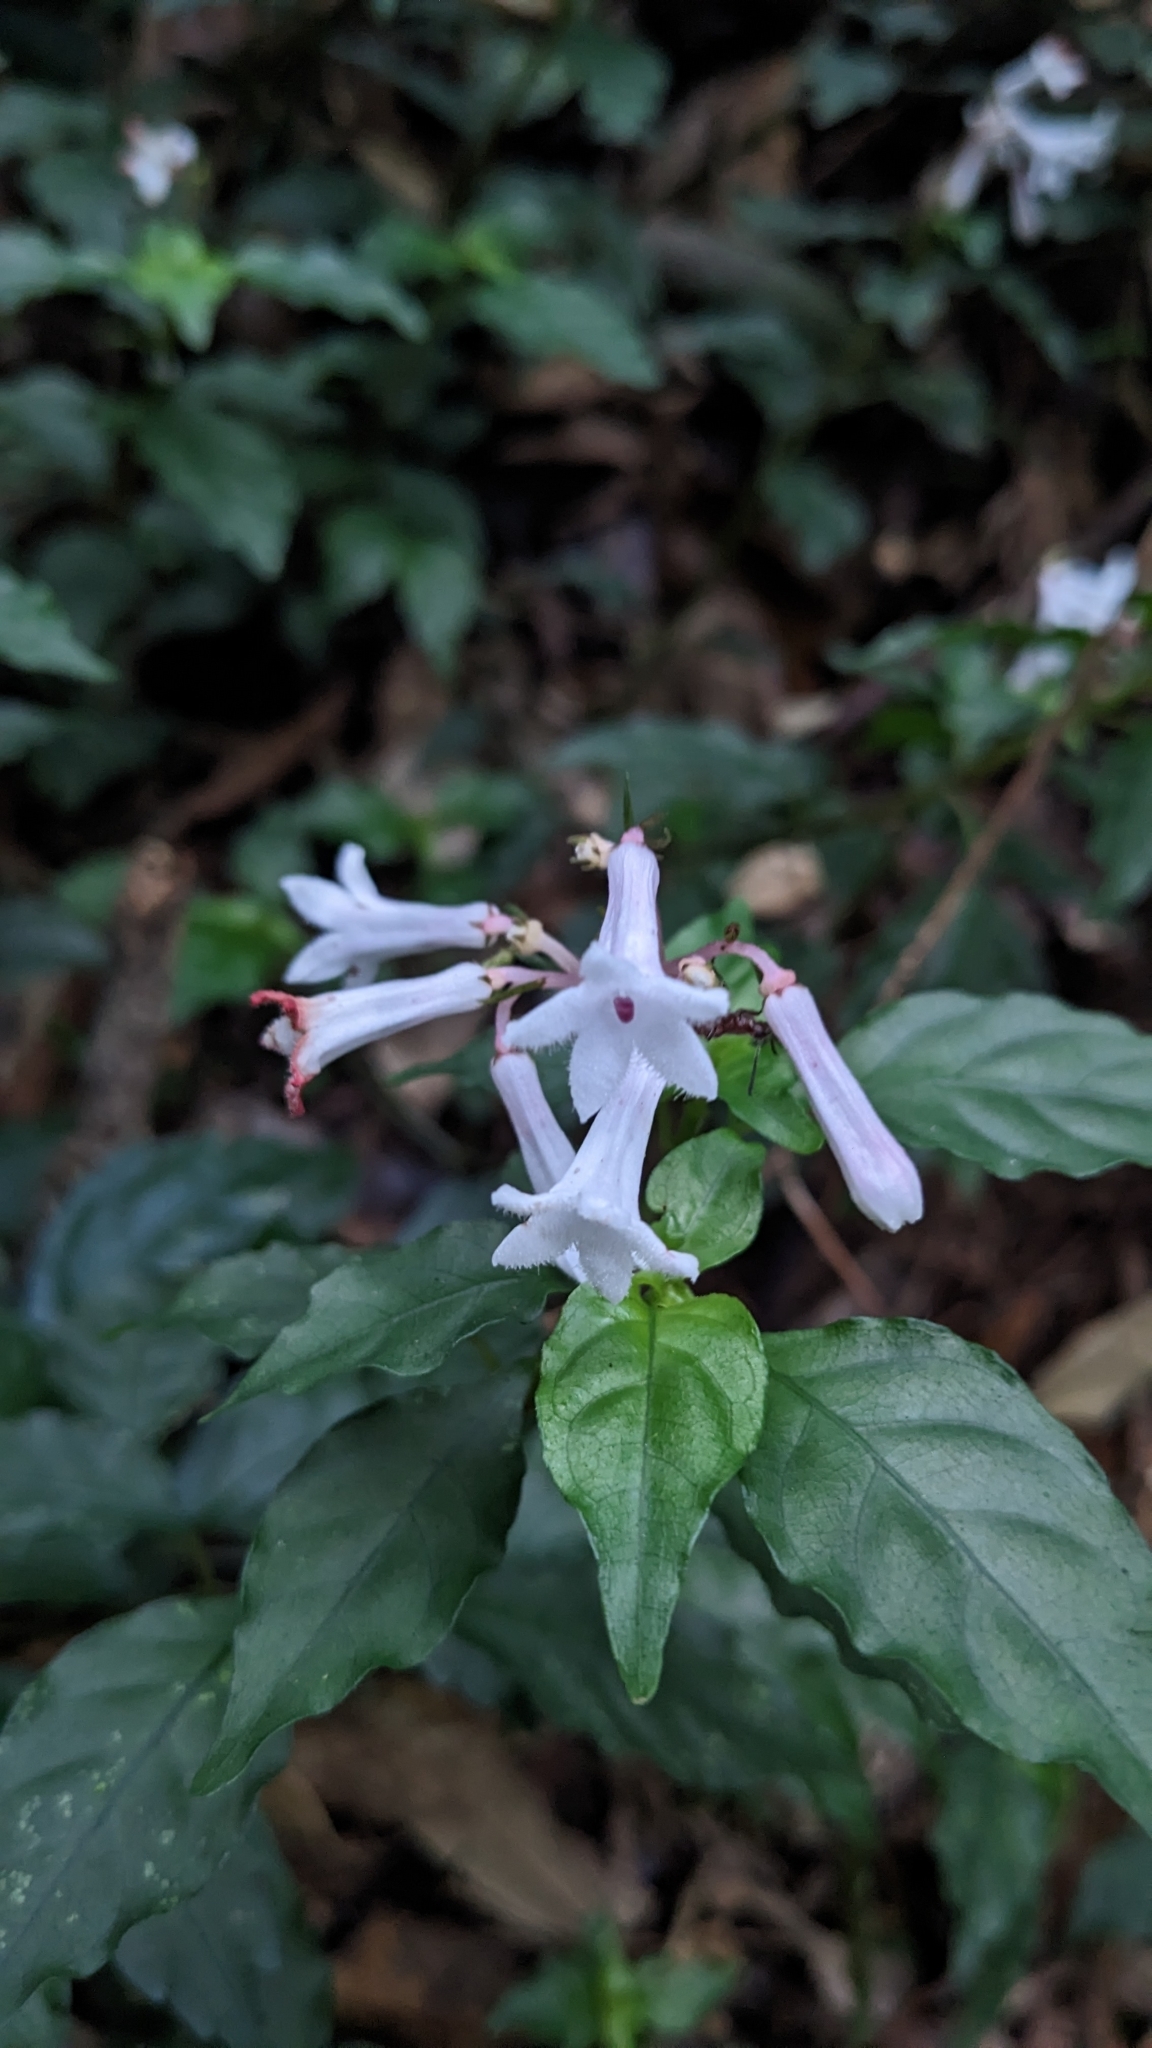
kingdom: Plantae
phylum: Tracheophyta
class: Magnoliopsida
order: Gentianales
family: Rubiaceae
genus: Ophiorrhiza
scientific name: Ophiorrhiza japonica
